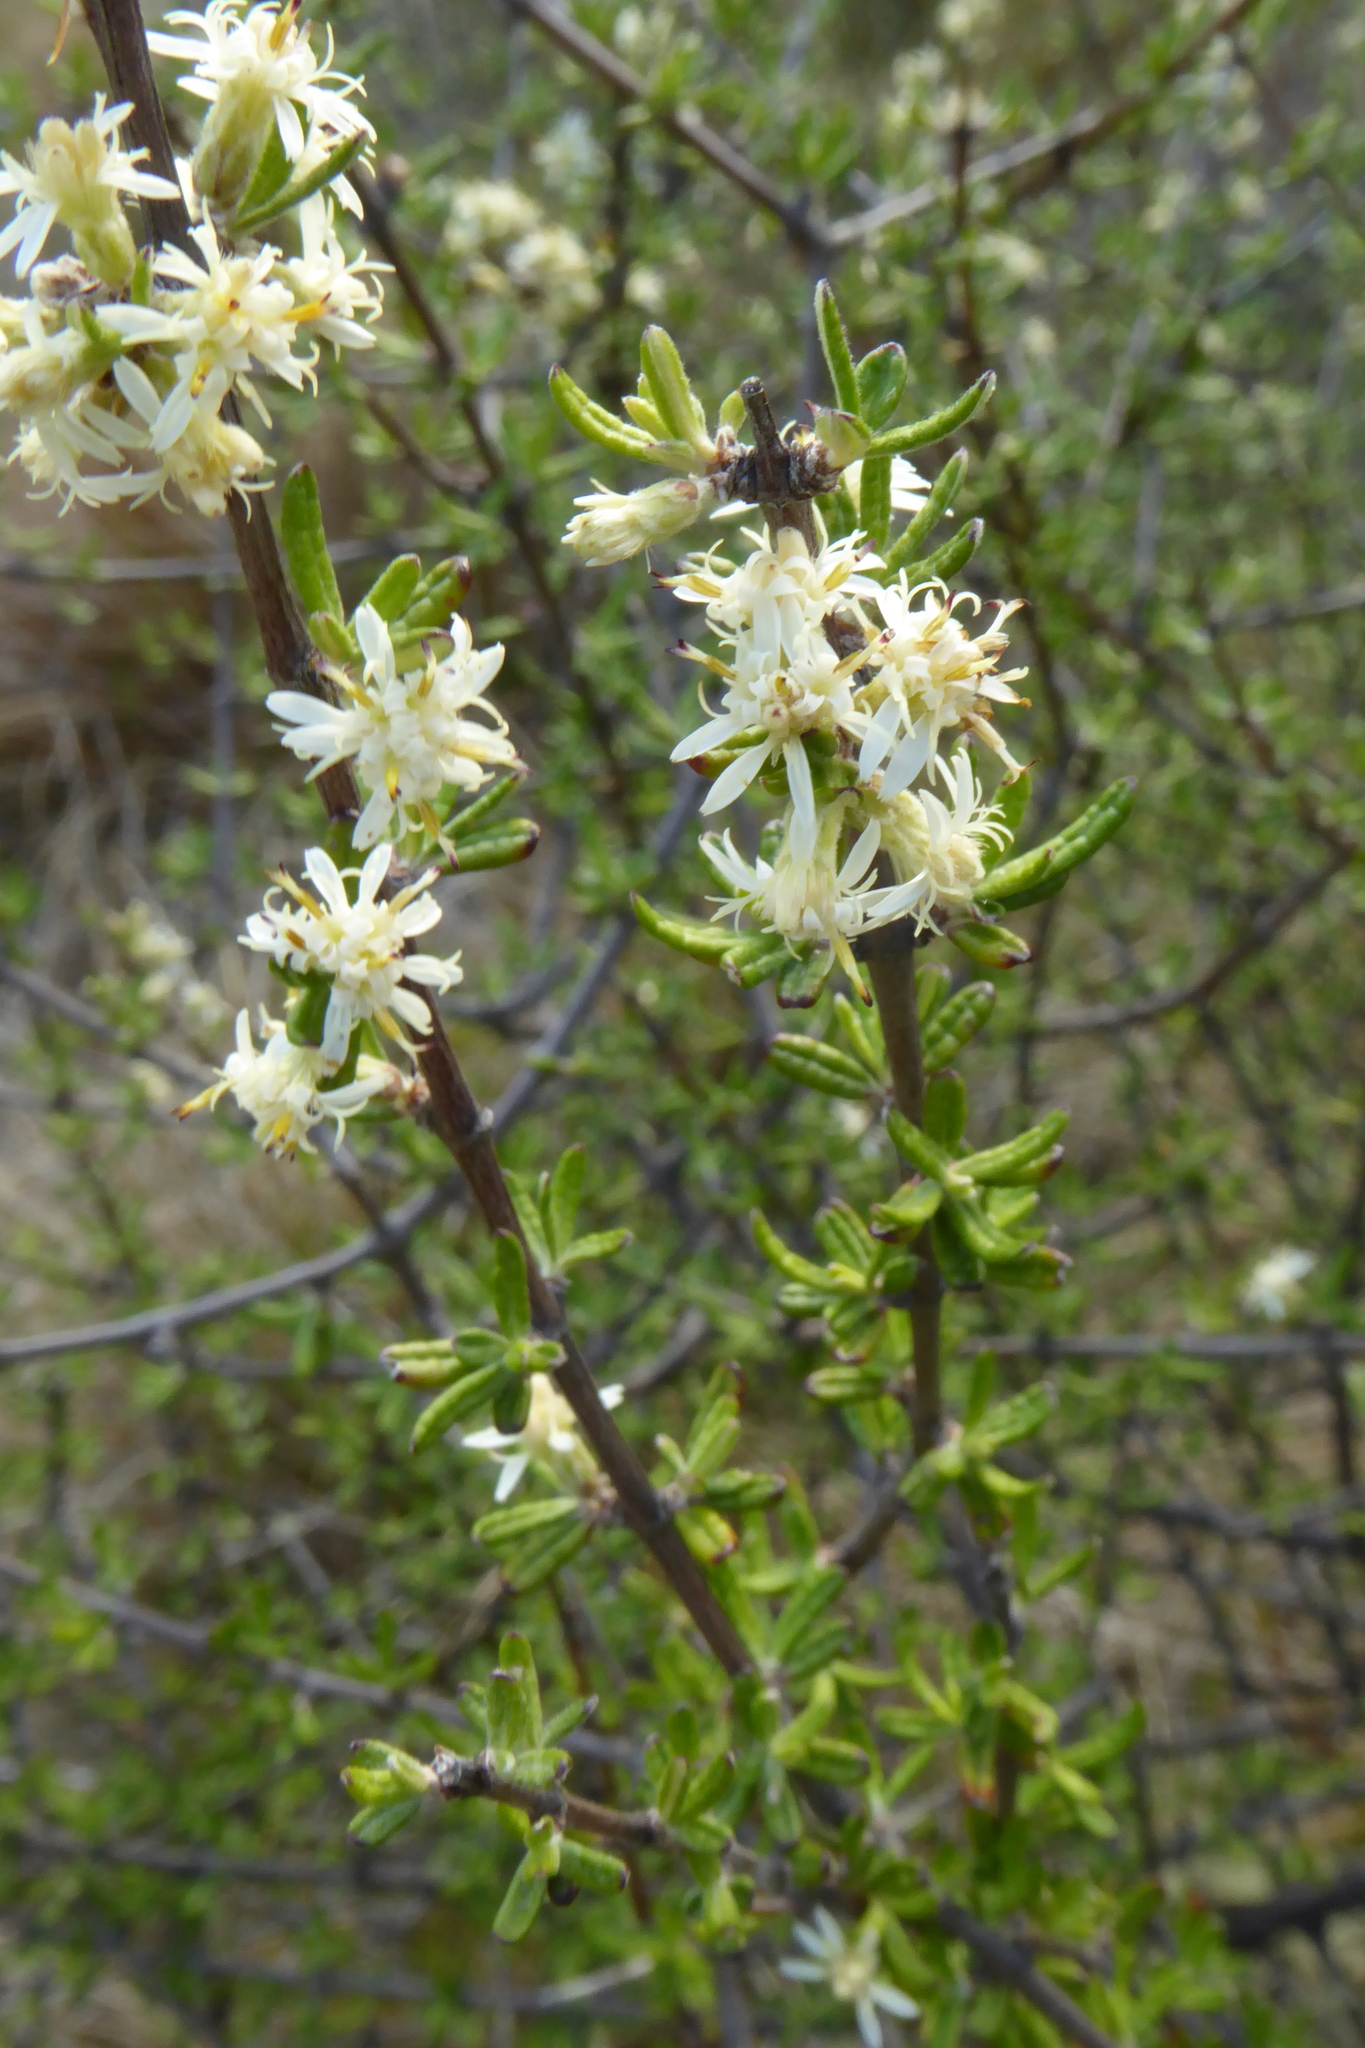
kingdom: Plantae
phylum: Tracheophyta
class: Magnoliopsida
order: Asterales
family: Asteraceae
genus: Olearia
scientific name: Olearia bullata
